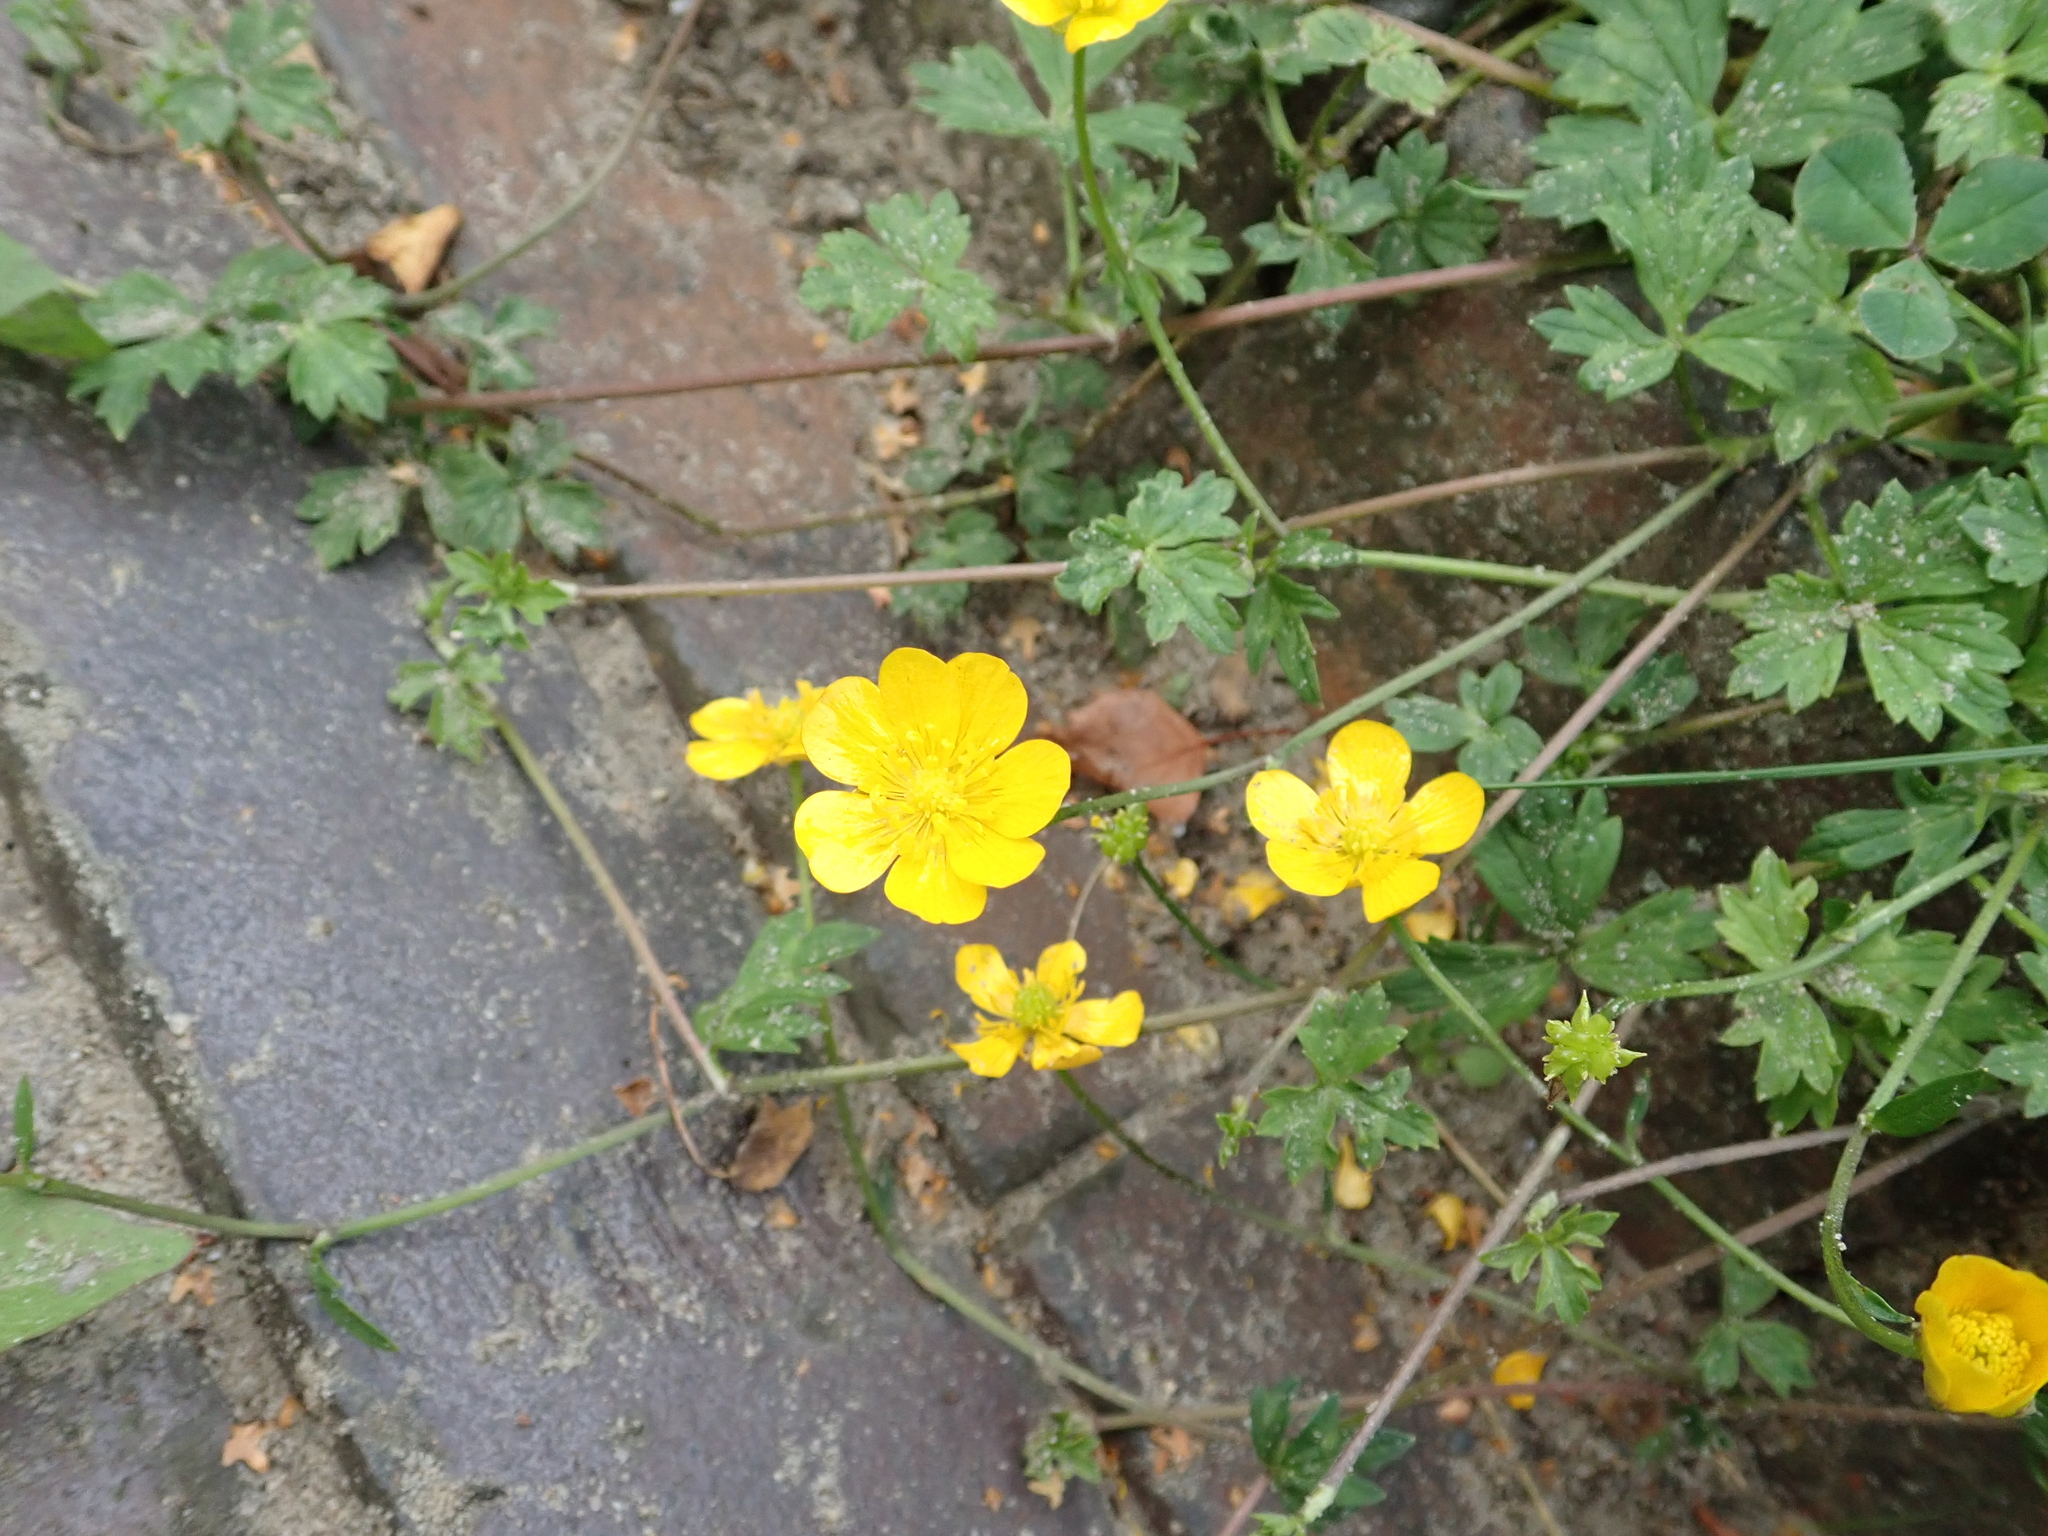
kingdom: Plantae
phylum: Tracheophyta
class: Magnoliopsida
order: Ranunculales
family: Ranunculaceae
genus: Ranunculus
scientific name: Ranunculus repens
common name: Creeping buttercup
